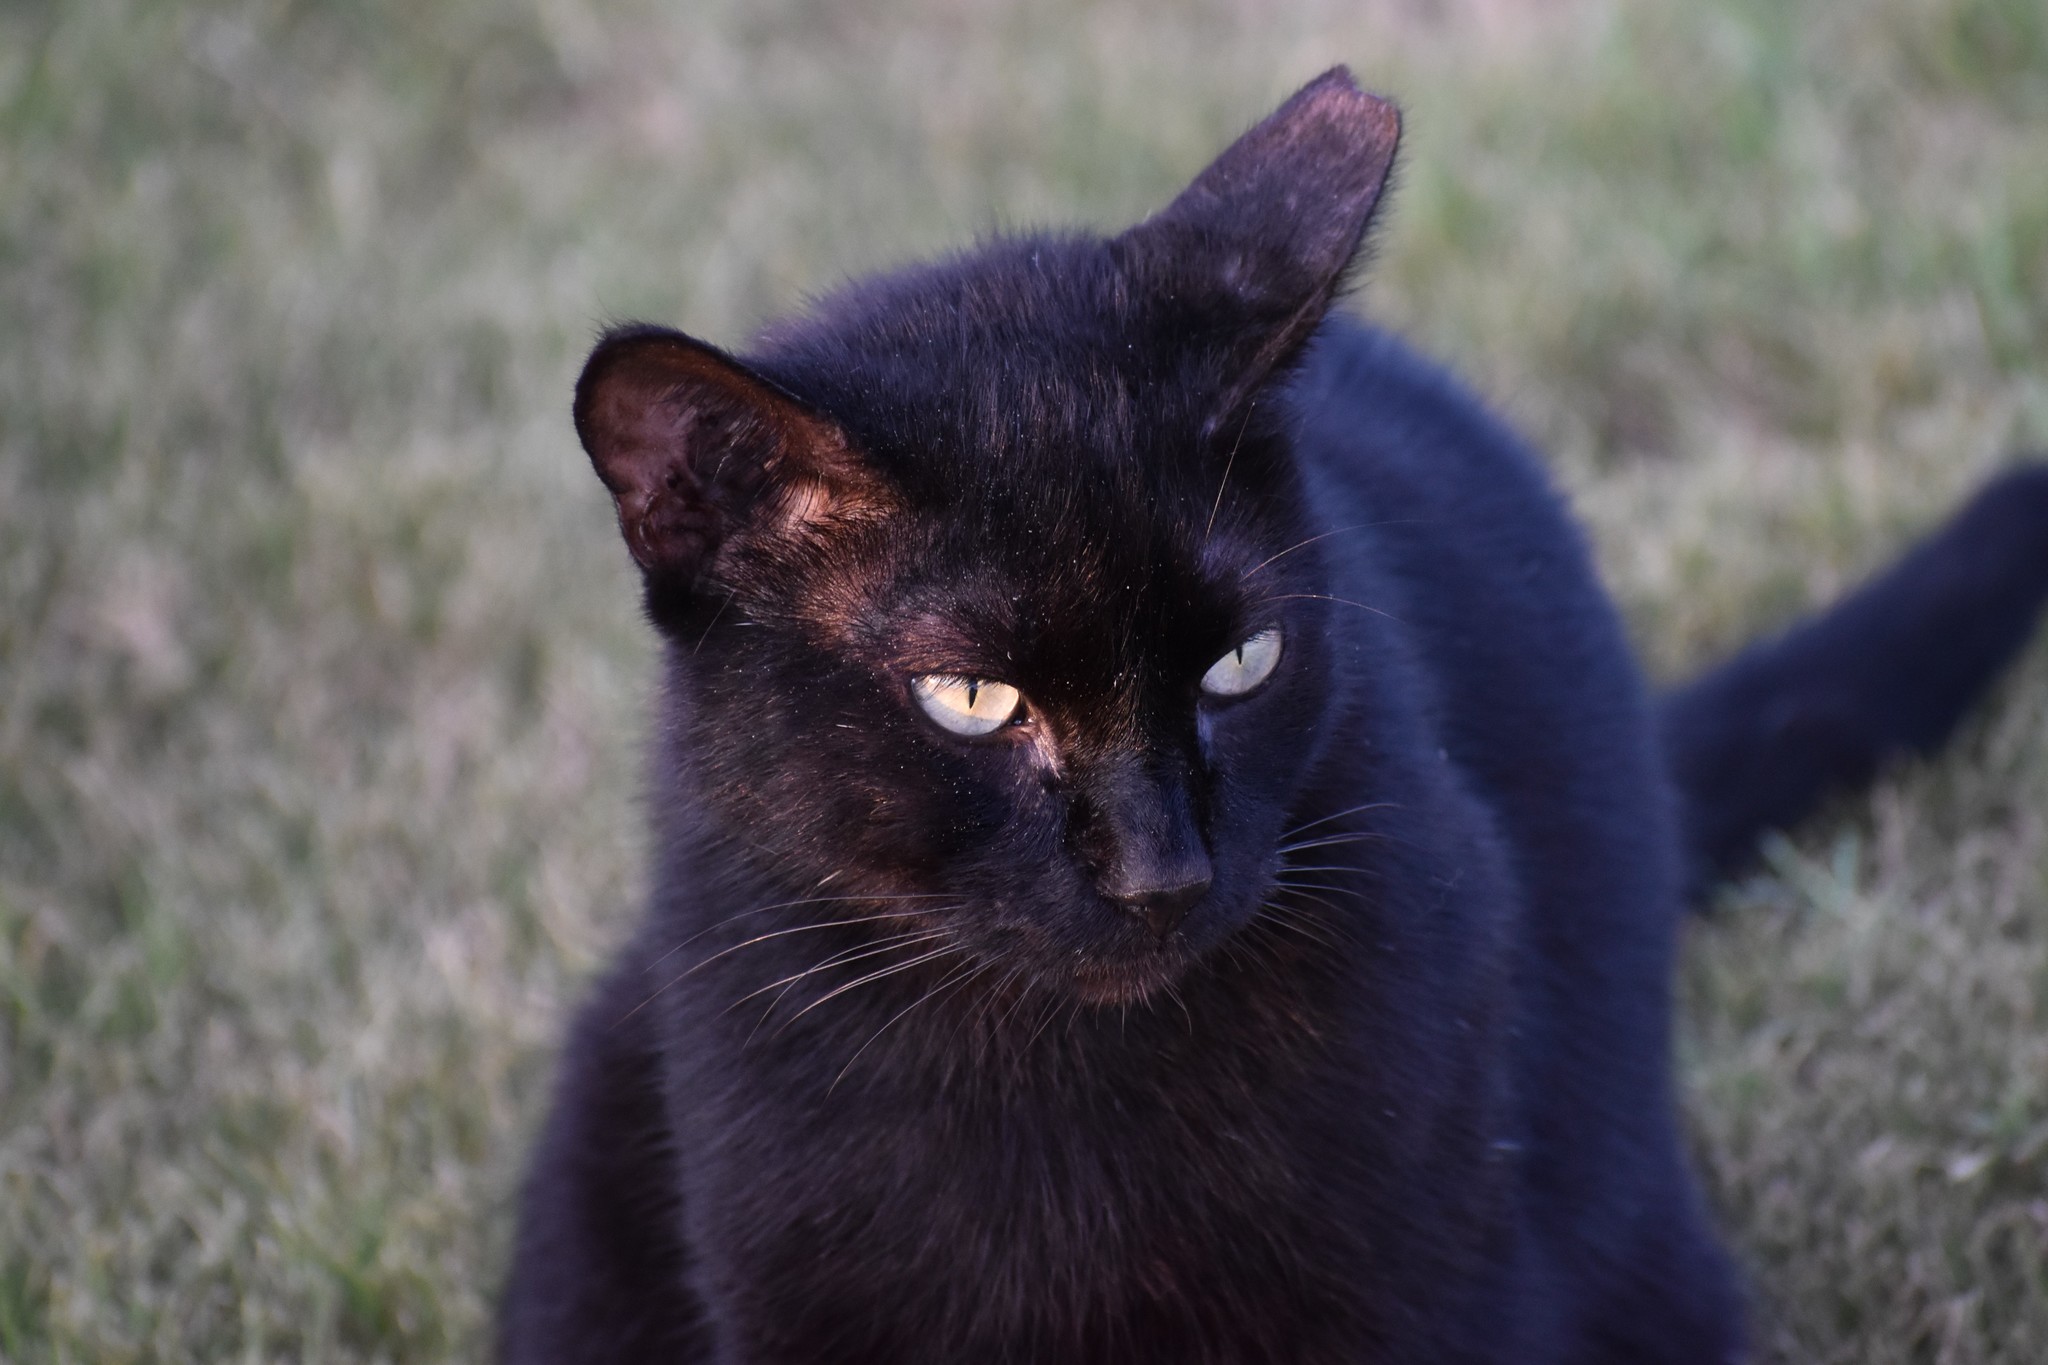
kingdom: Animalia
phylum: Chordata
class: Mammalia
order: Carnivora
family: Felidae
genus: Felis
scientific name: Felis catus
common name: Domestic cat
